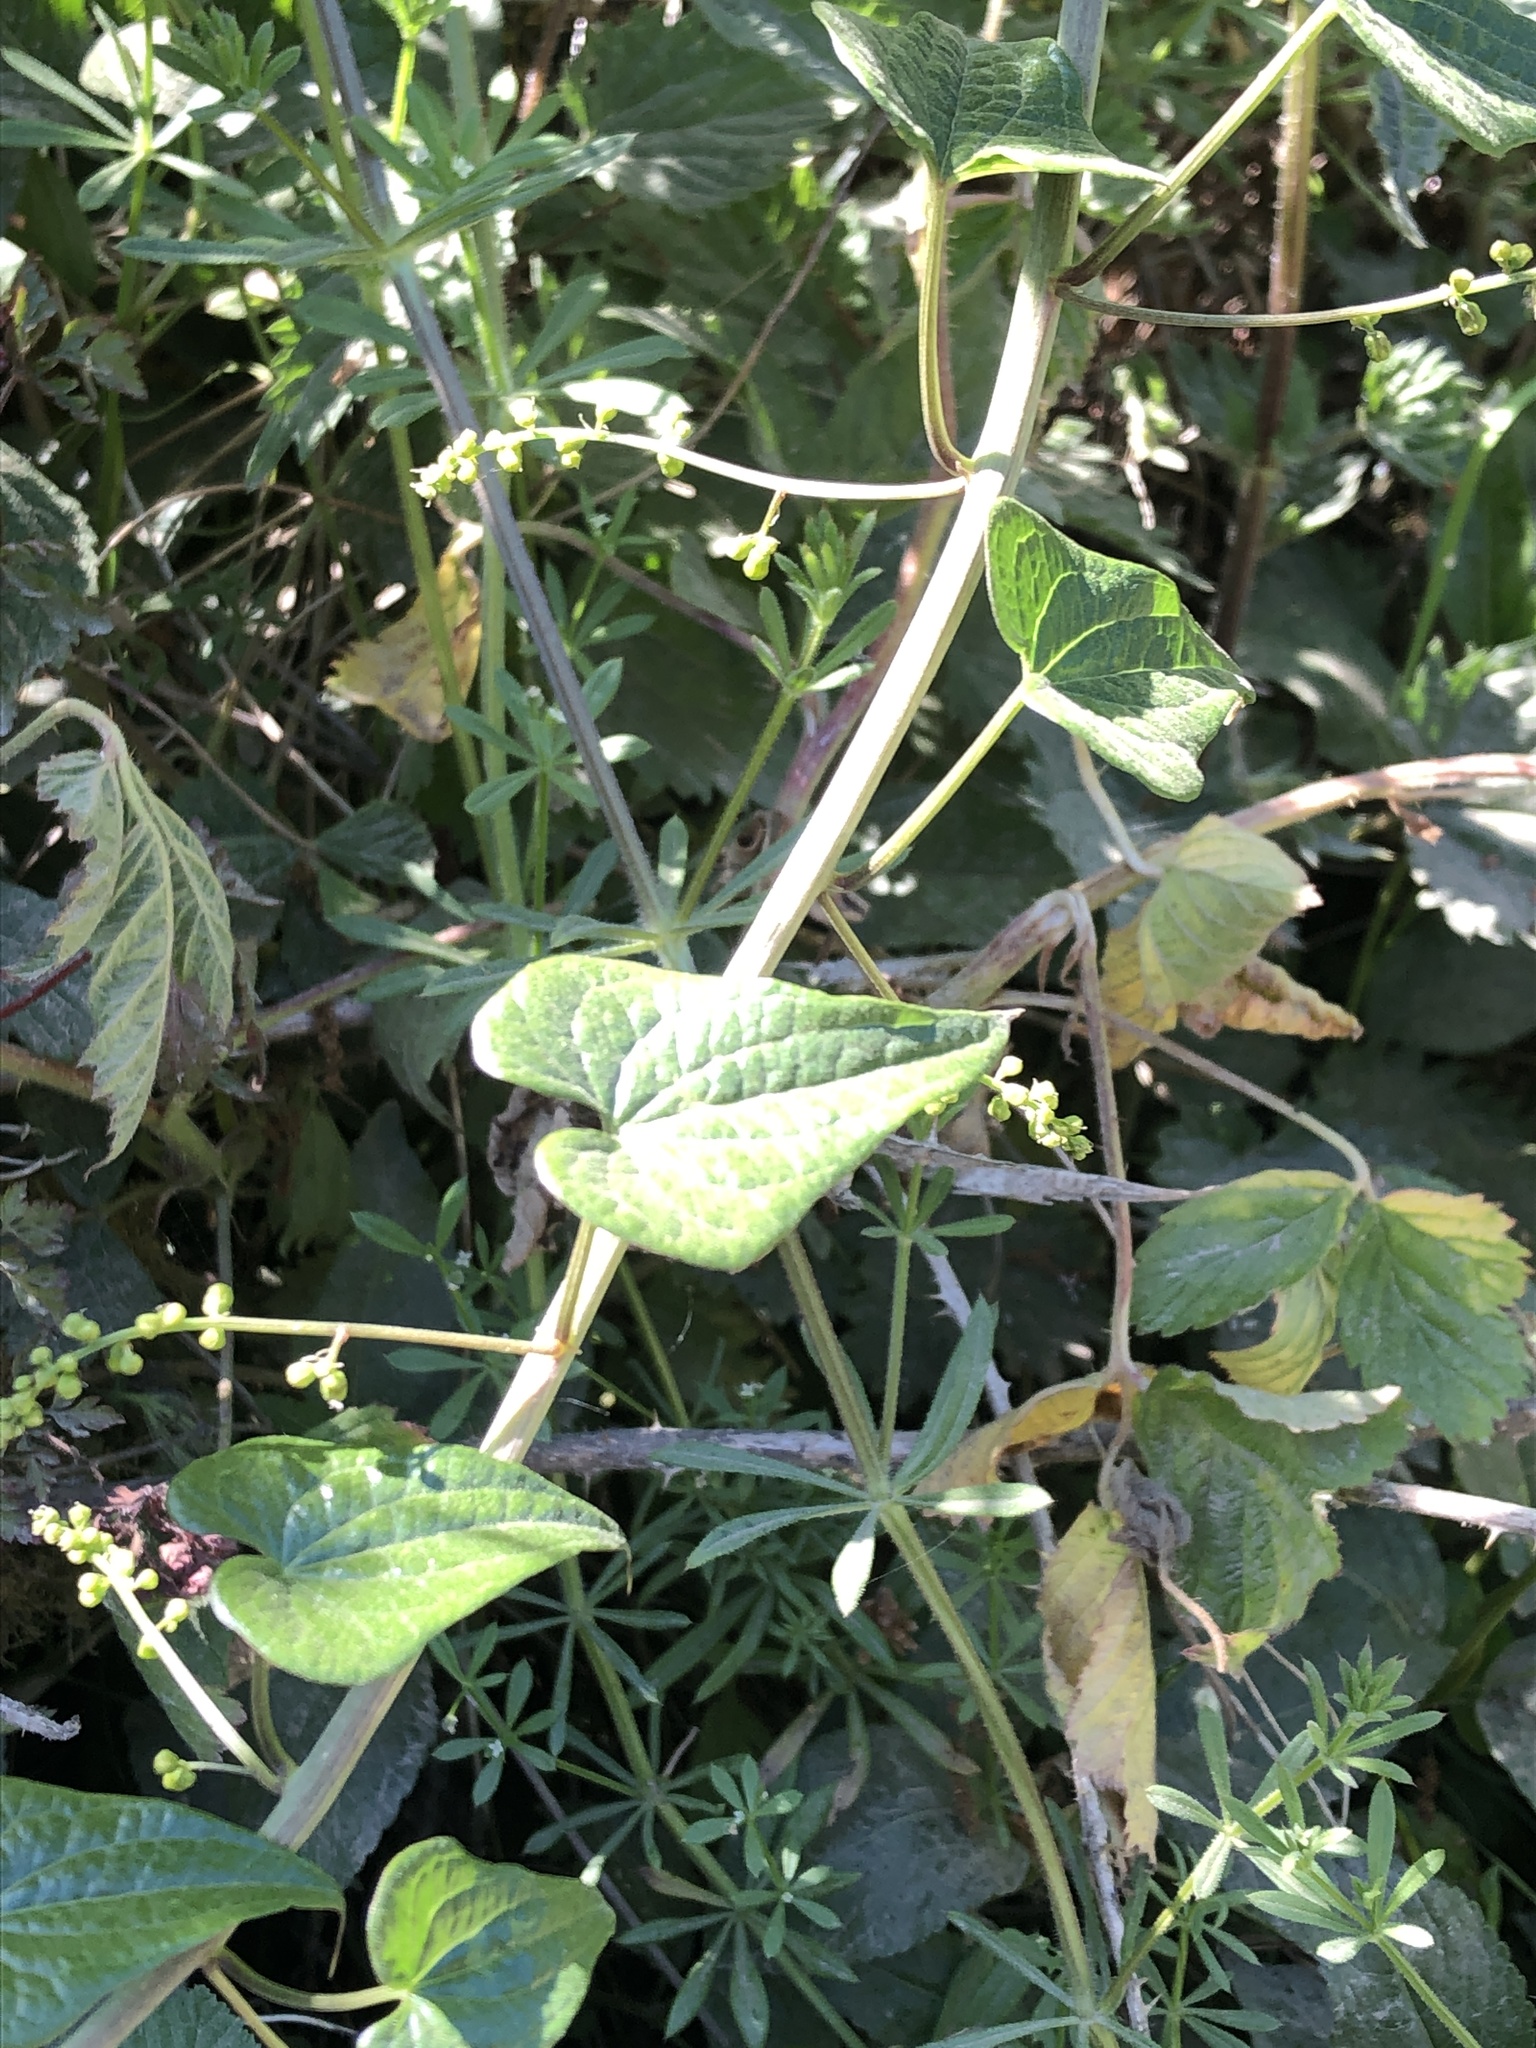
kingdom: Plantae
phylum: Tracheophyta
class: Liliopsida
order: Dioscoreales
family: Dioscoreaceae
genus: Dioscorea
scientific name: Dioscorea communis
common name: Black-bindweed
